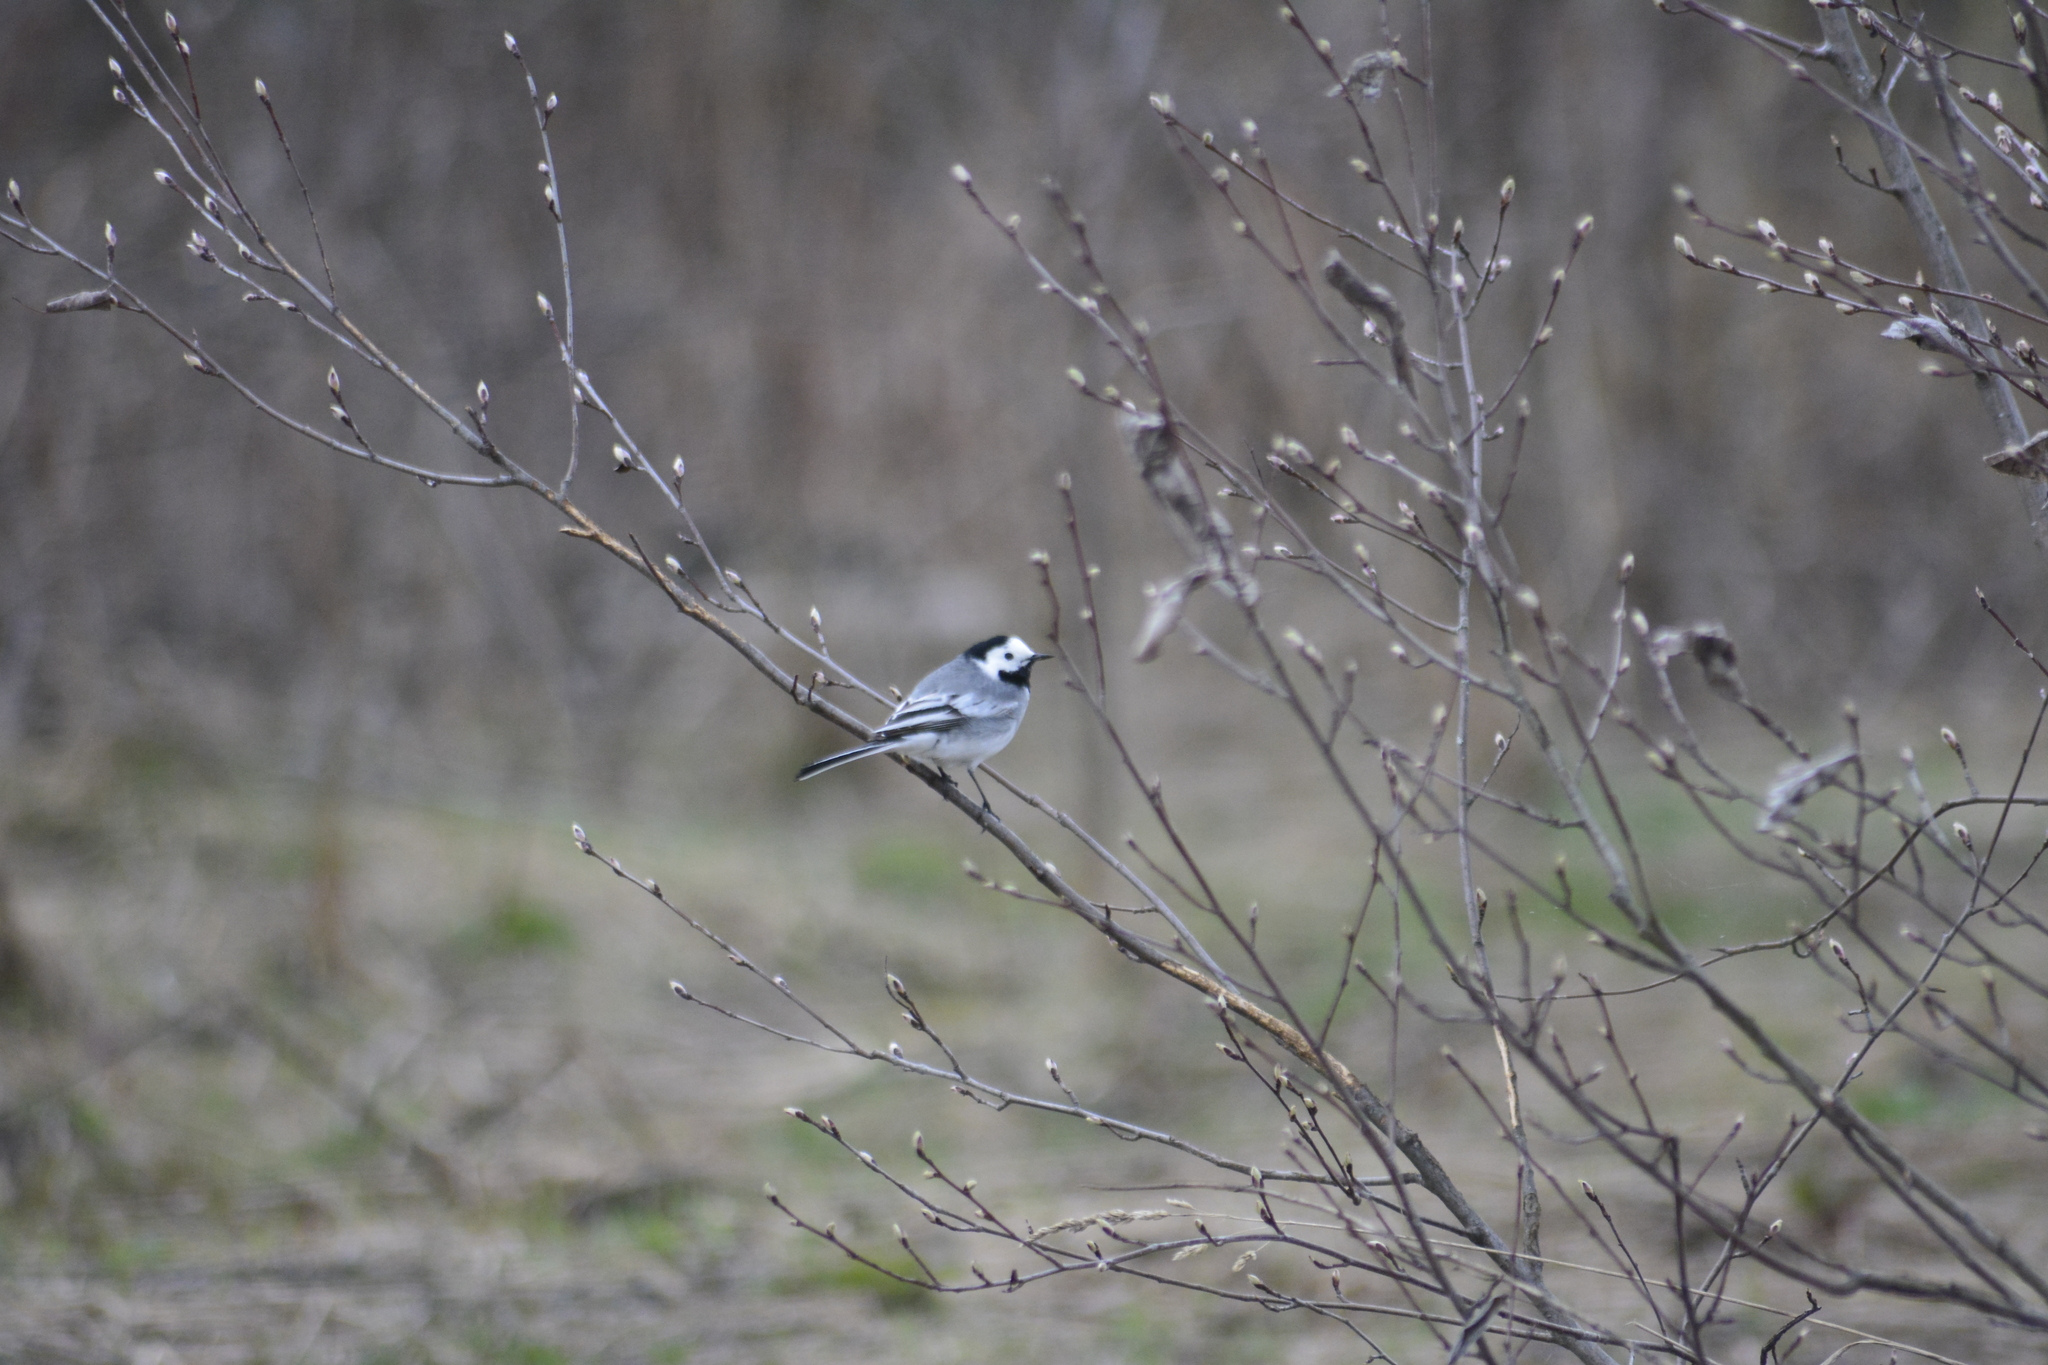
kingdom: Animalia
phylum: Chordata
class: Aves
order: Passeriformes
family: Motacillidae
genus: Motacilla
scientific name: Motacilla alba
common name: White wagtail
